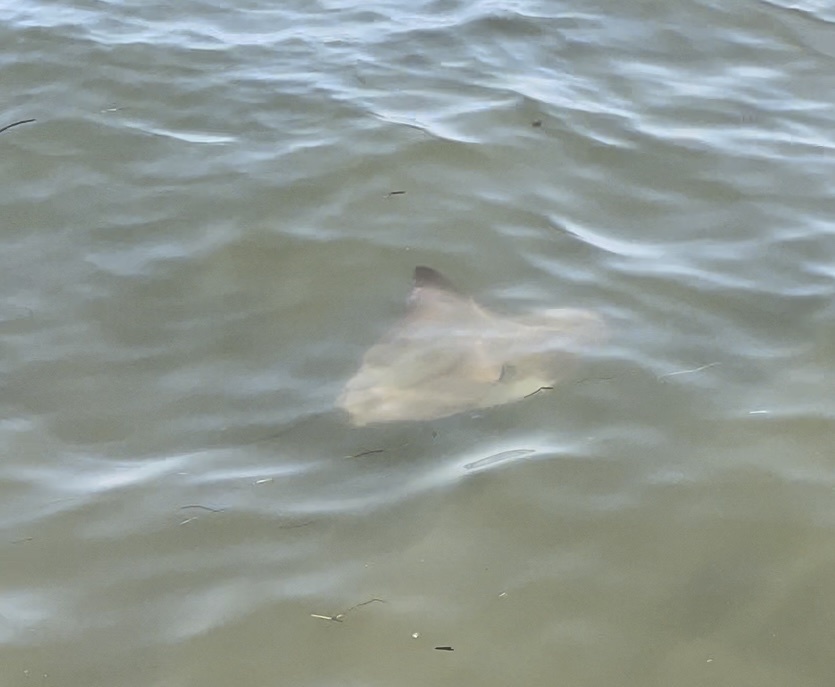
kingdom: Animalia
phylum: Chordata
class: Elasmobranchii
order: Myliobatiformes
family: Myliobatidae
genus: Rhinoptera
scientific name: Rhinoptera bonasus
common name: Cownose ray
